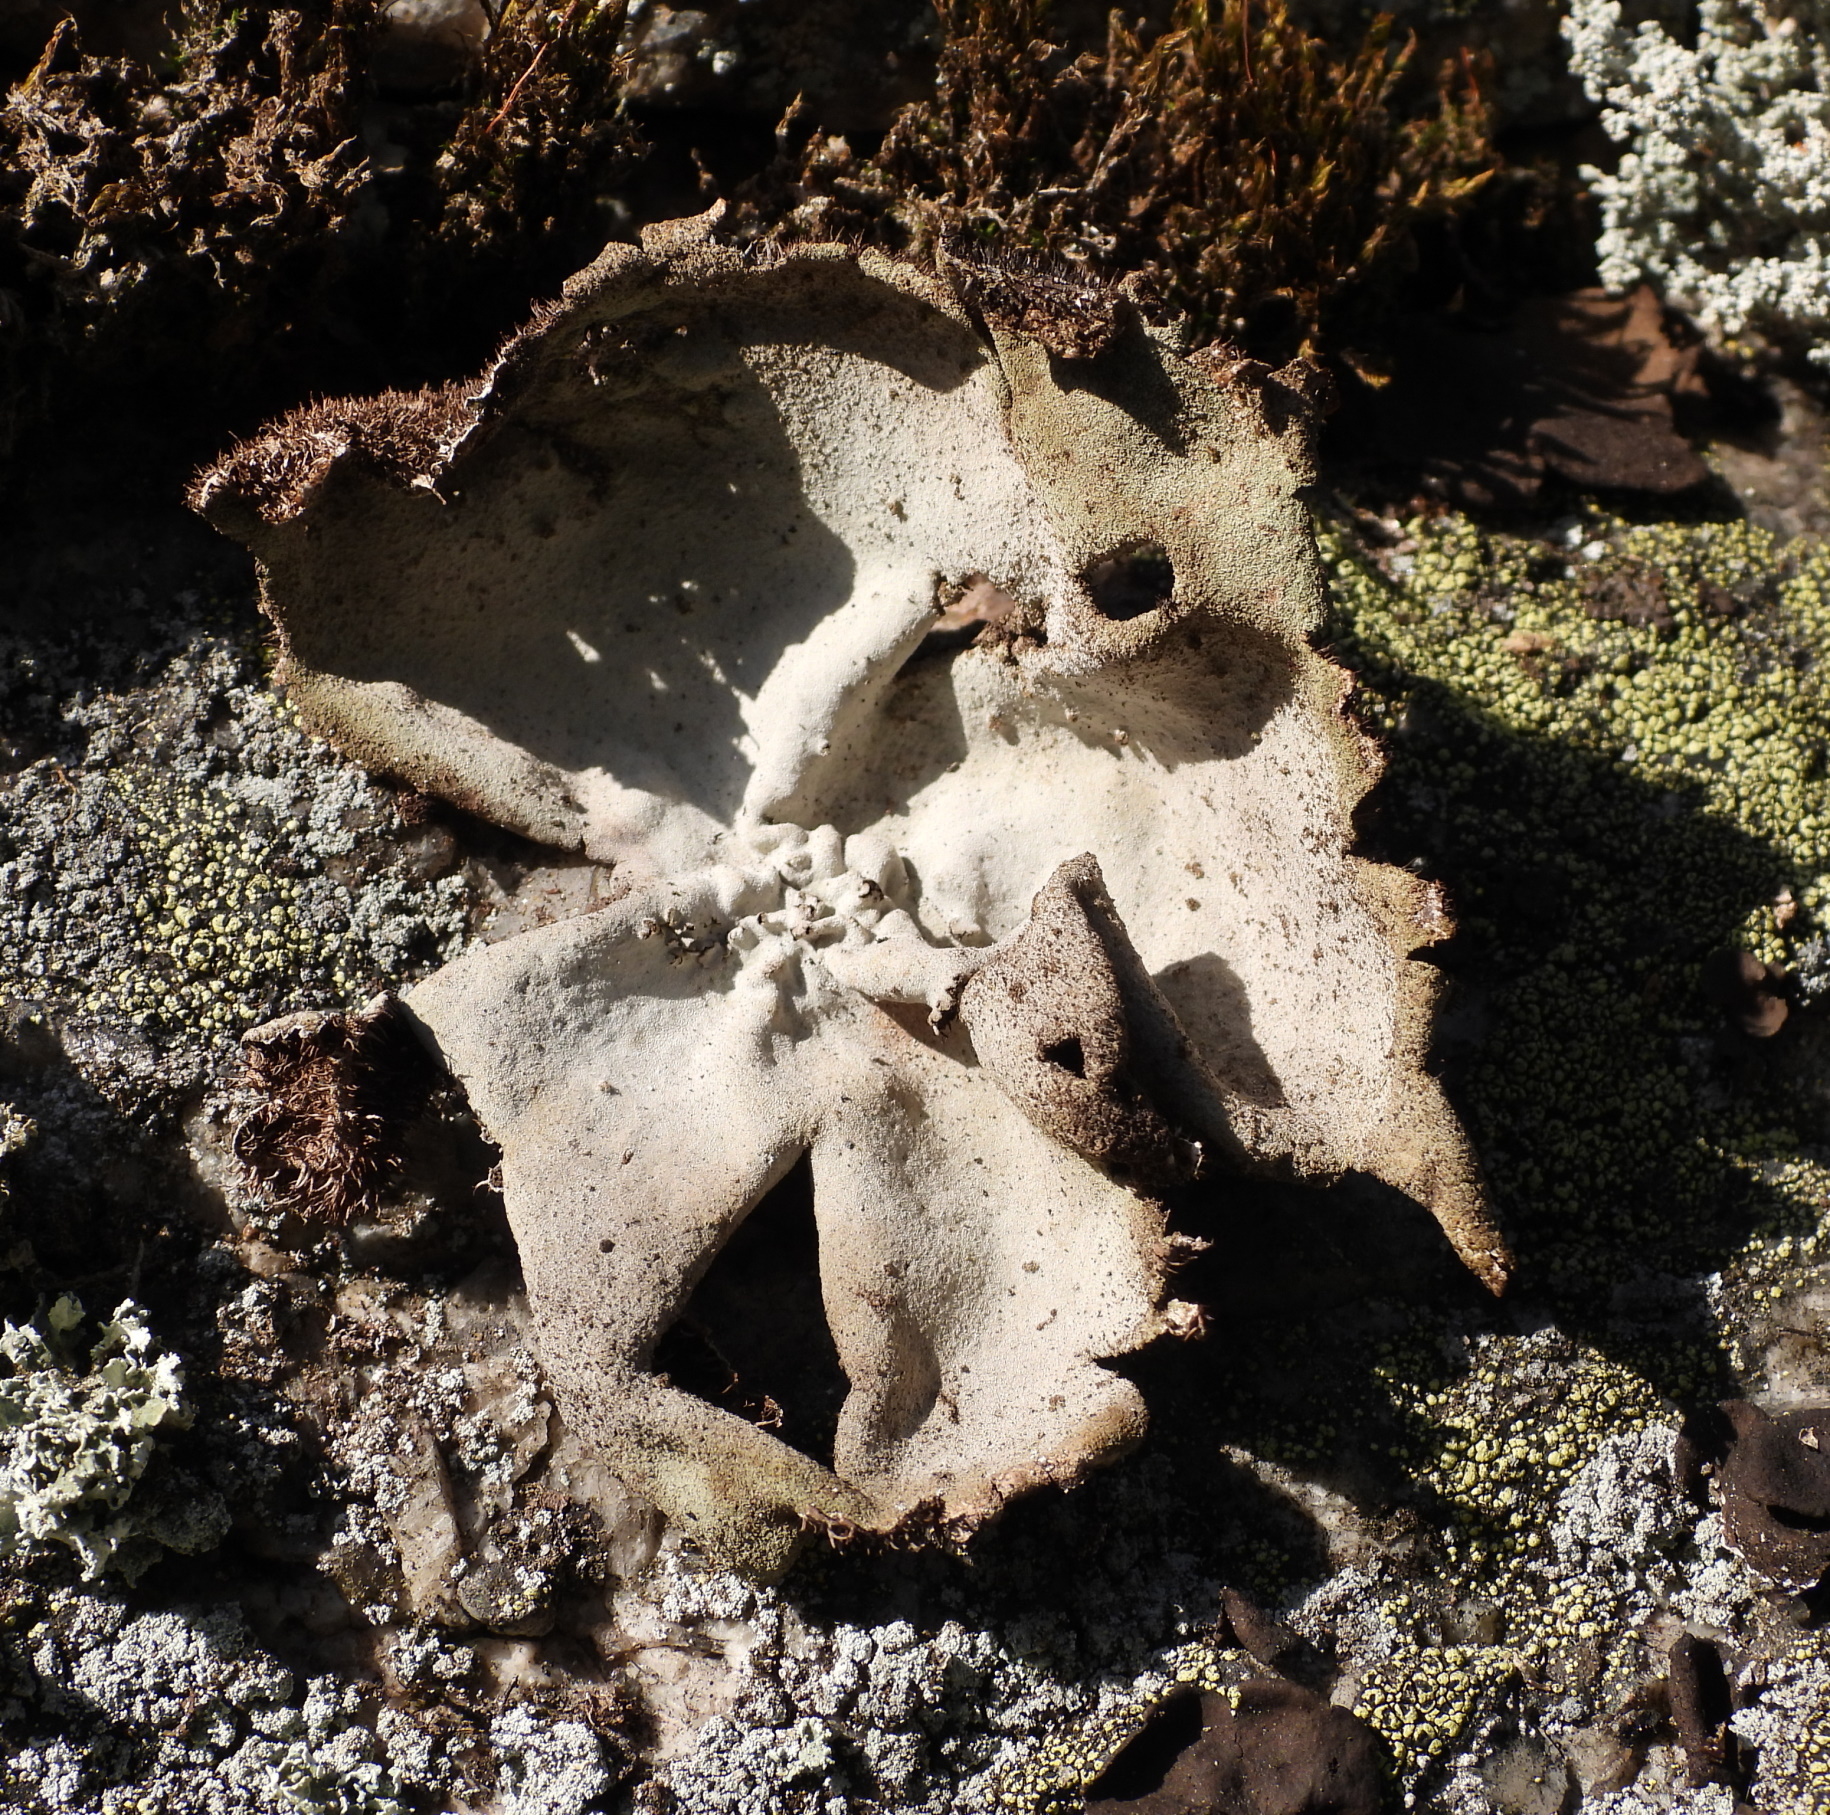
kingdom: Fungi
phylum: Ascomycota
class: Lecanoromycetes
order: Umbilicariales
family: Umbilicariaceae
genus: Umbilicaria
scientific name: Umbilicaria hirsuta
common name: Granulating rocktripe lichen
